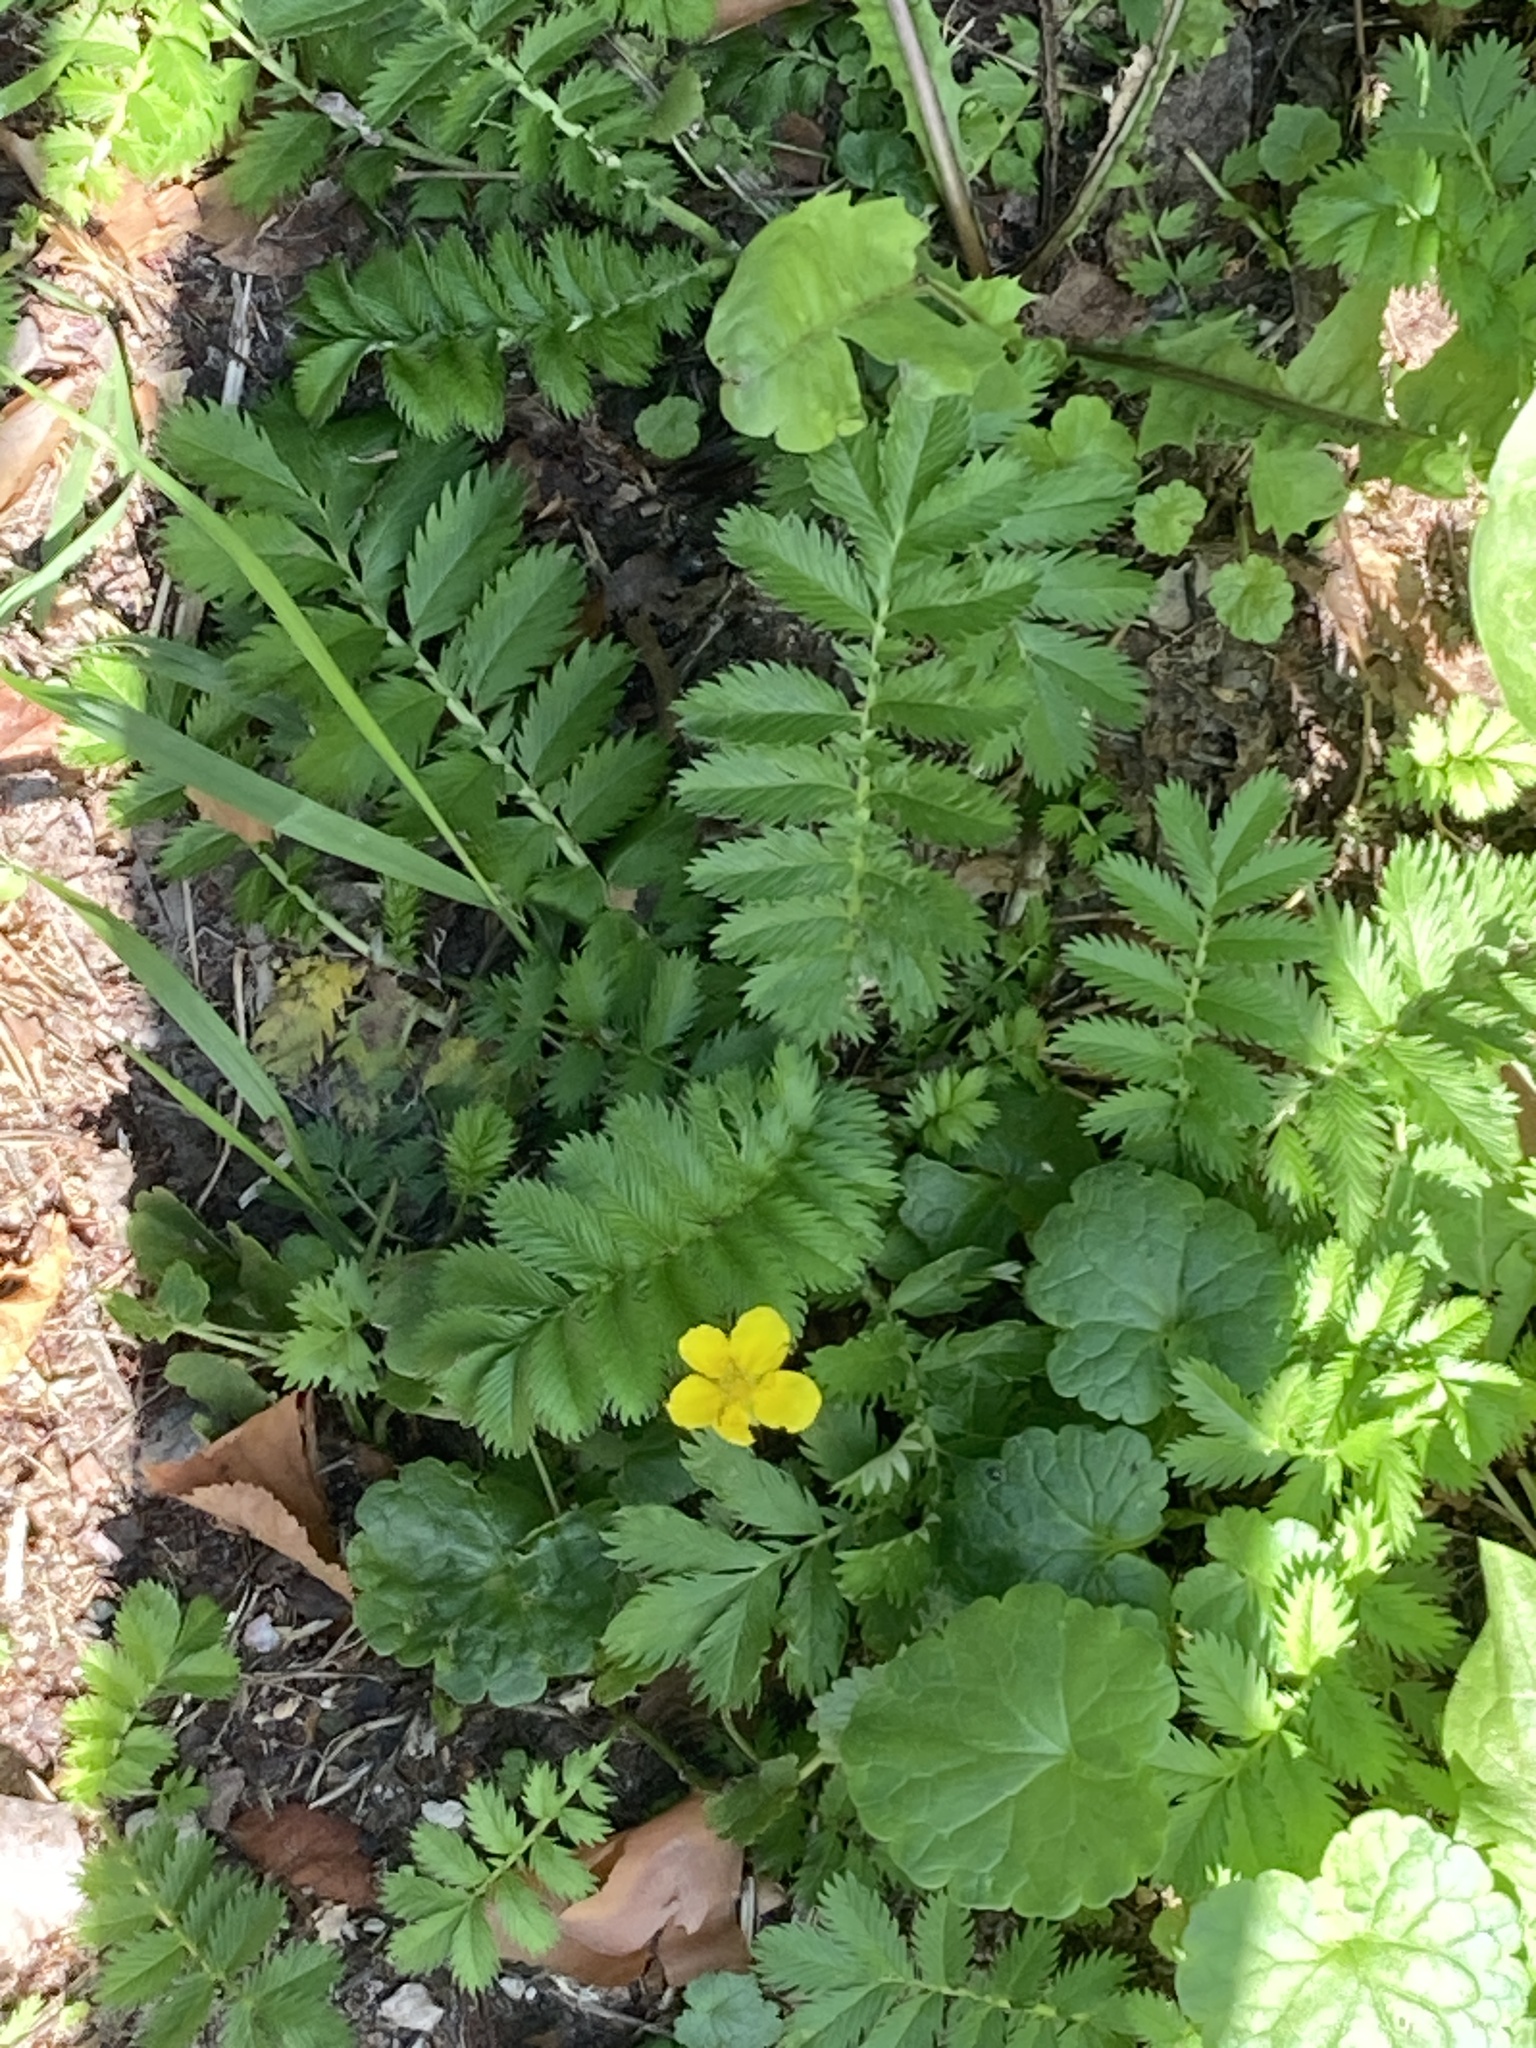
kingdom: Plantae
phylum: Tracheophyta
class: Magnoliopsida
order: Rosales
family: Rosaceae
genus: Argentina
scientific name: Argentina anserina
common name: Common silverweed
